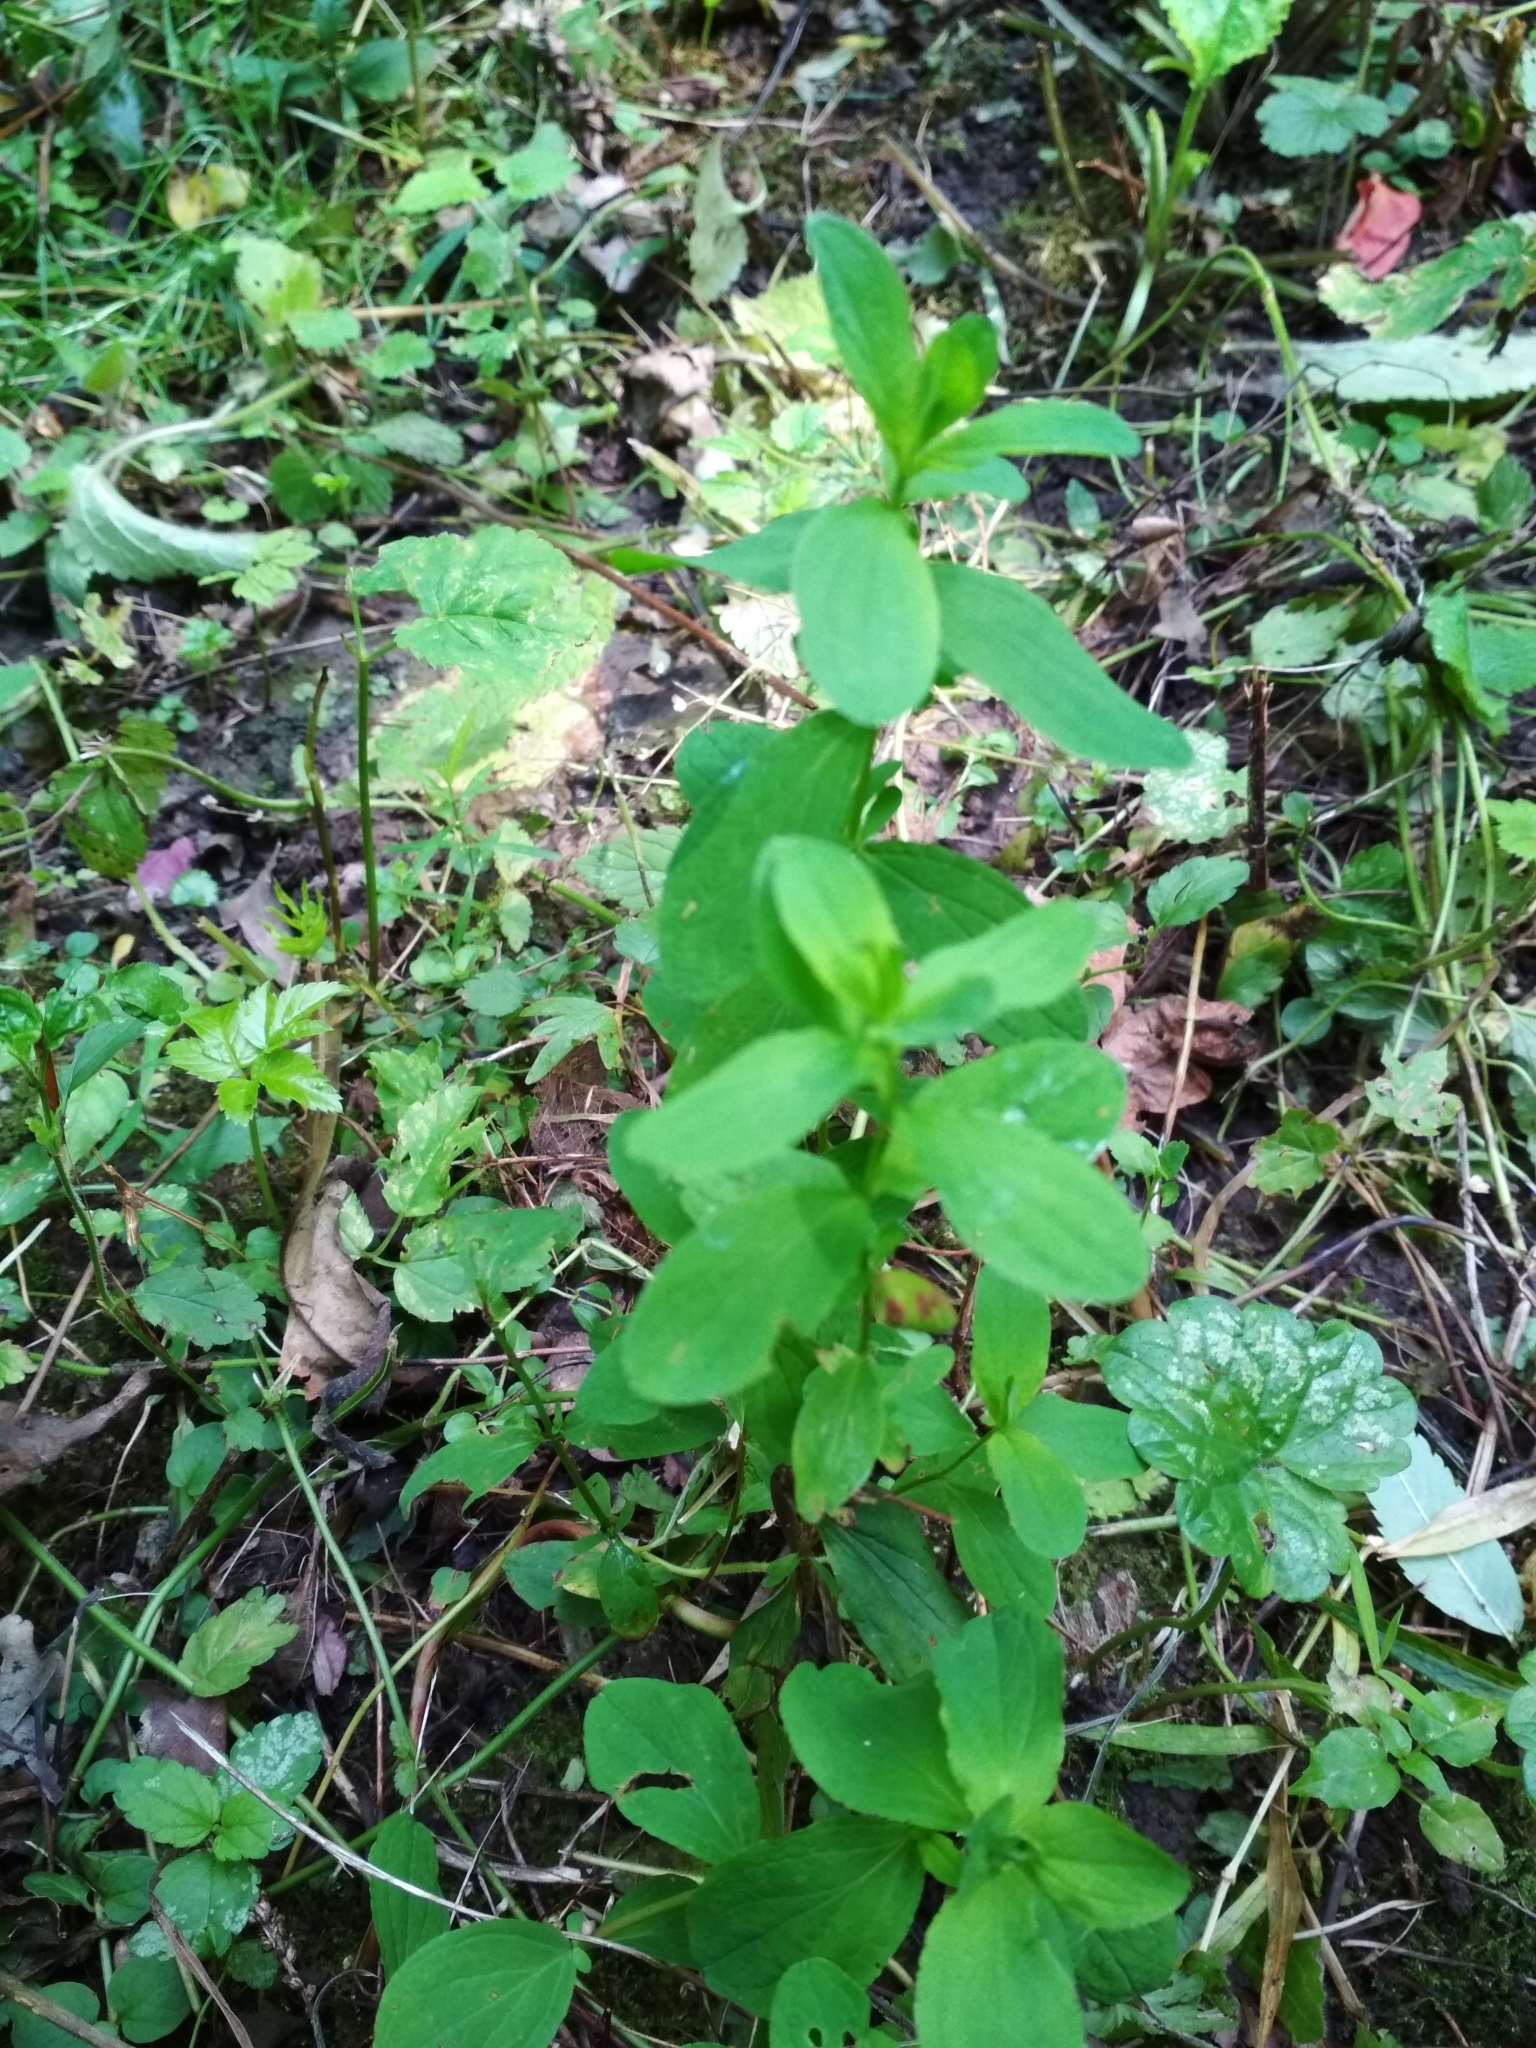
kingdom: Plantae
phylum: Tracheophyta
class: Magnoliopsida
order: Malpighiales
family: Hypericaceae
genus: Hypericum
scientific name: Hypericum maculatum
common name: Imperforate st. john's-wort
